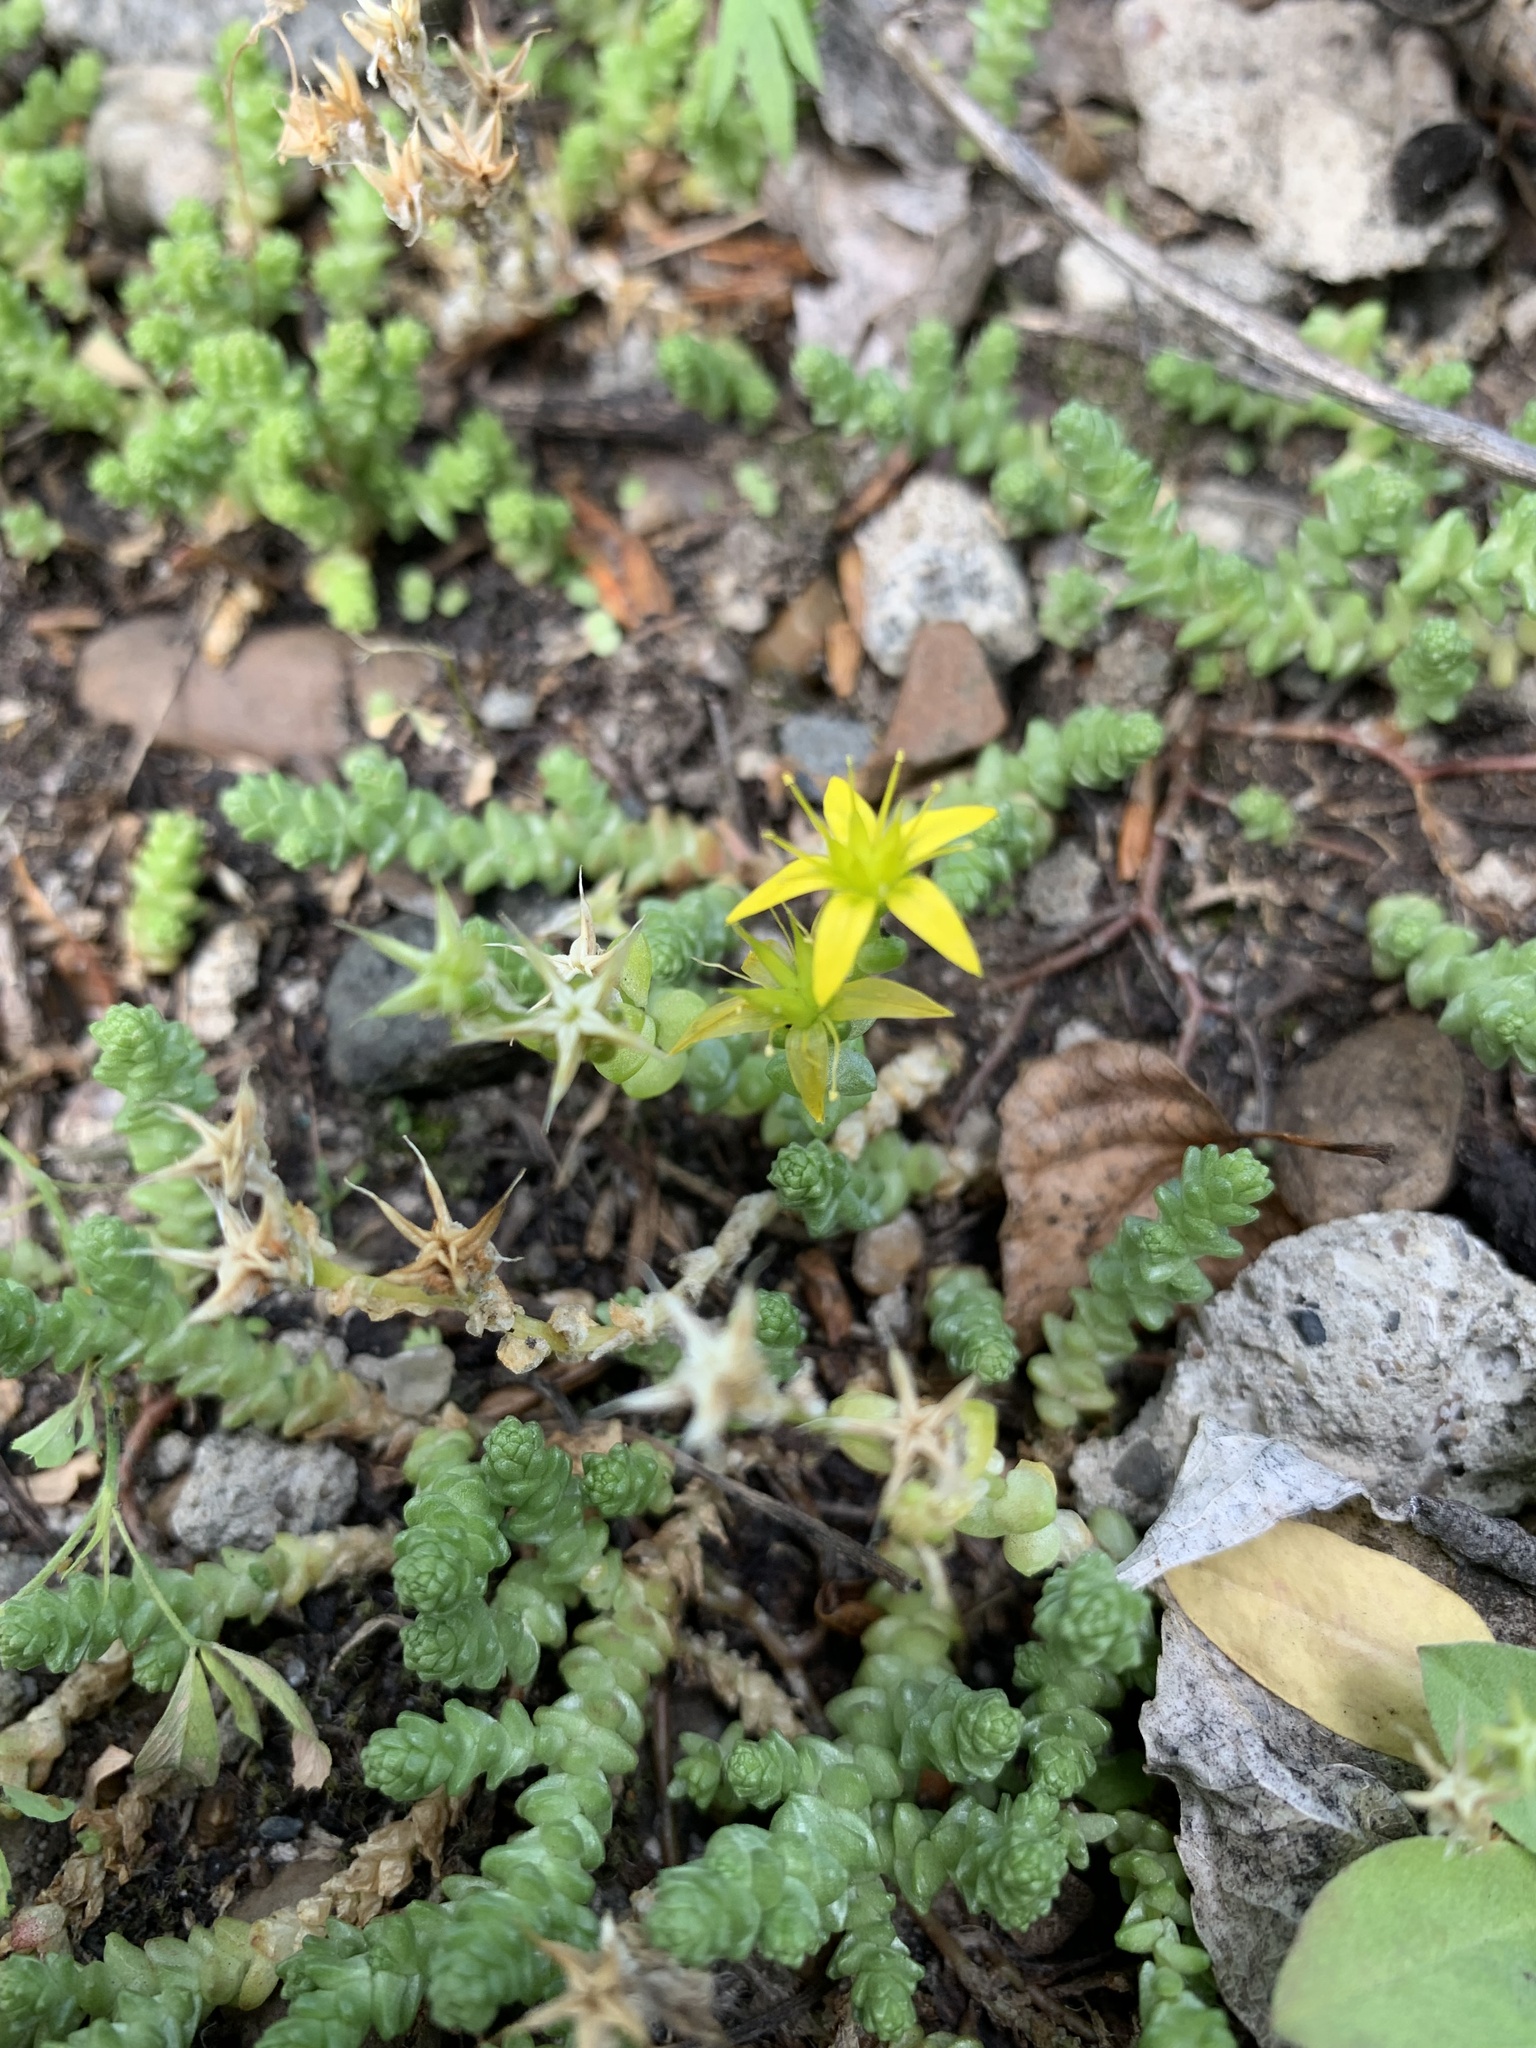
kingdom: Plantae
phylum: Tracheophyta
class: Magnoliopsida
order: Saxifragales
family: Crassulaceae
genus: Sedum
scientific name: Sedum acre
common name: Biting stonecrop
